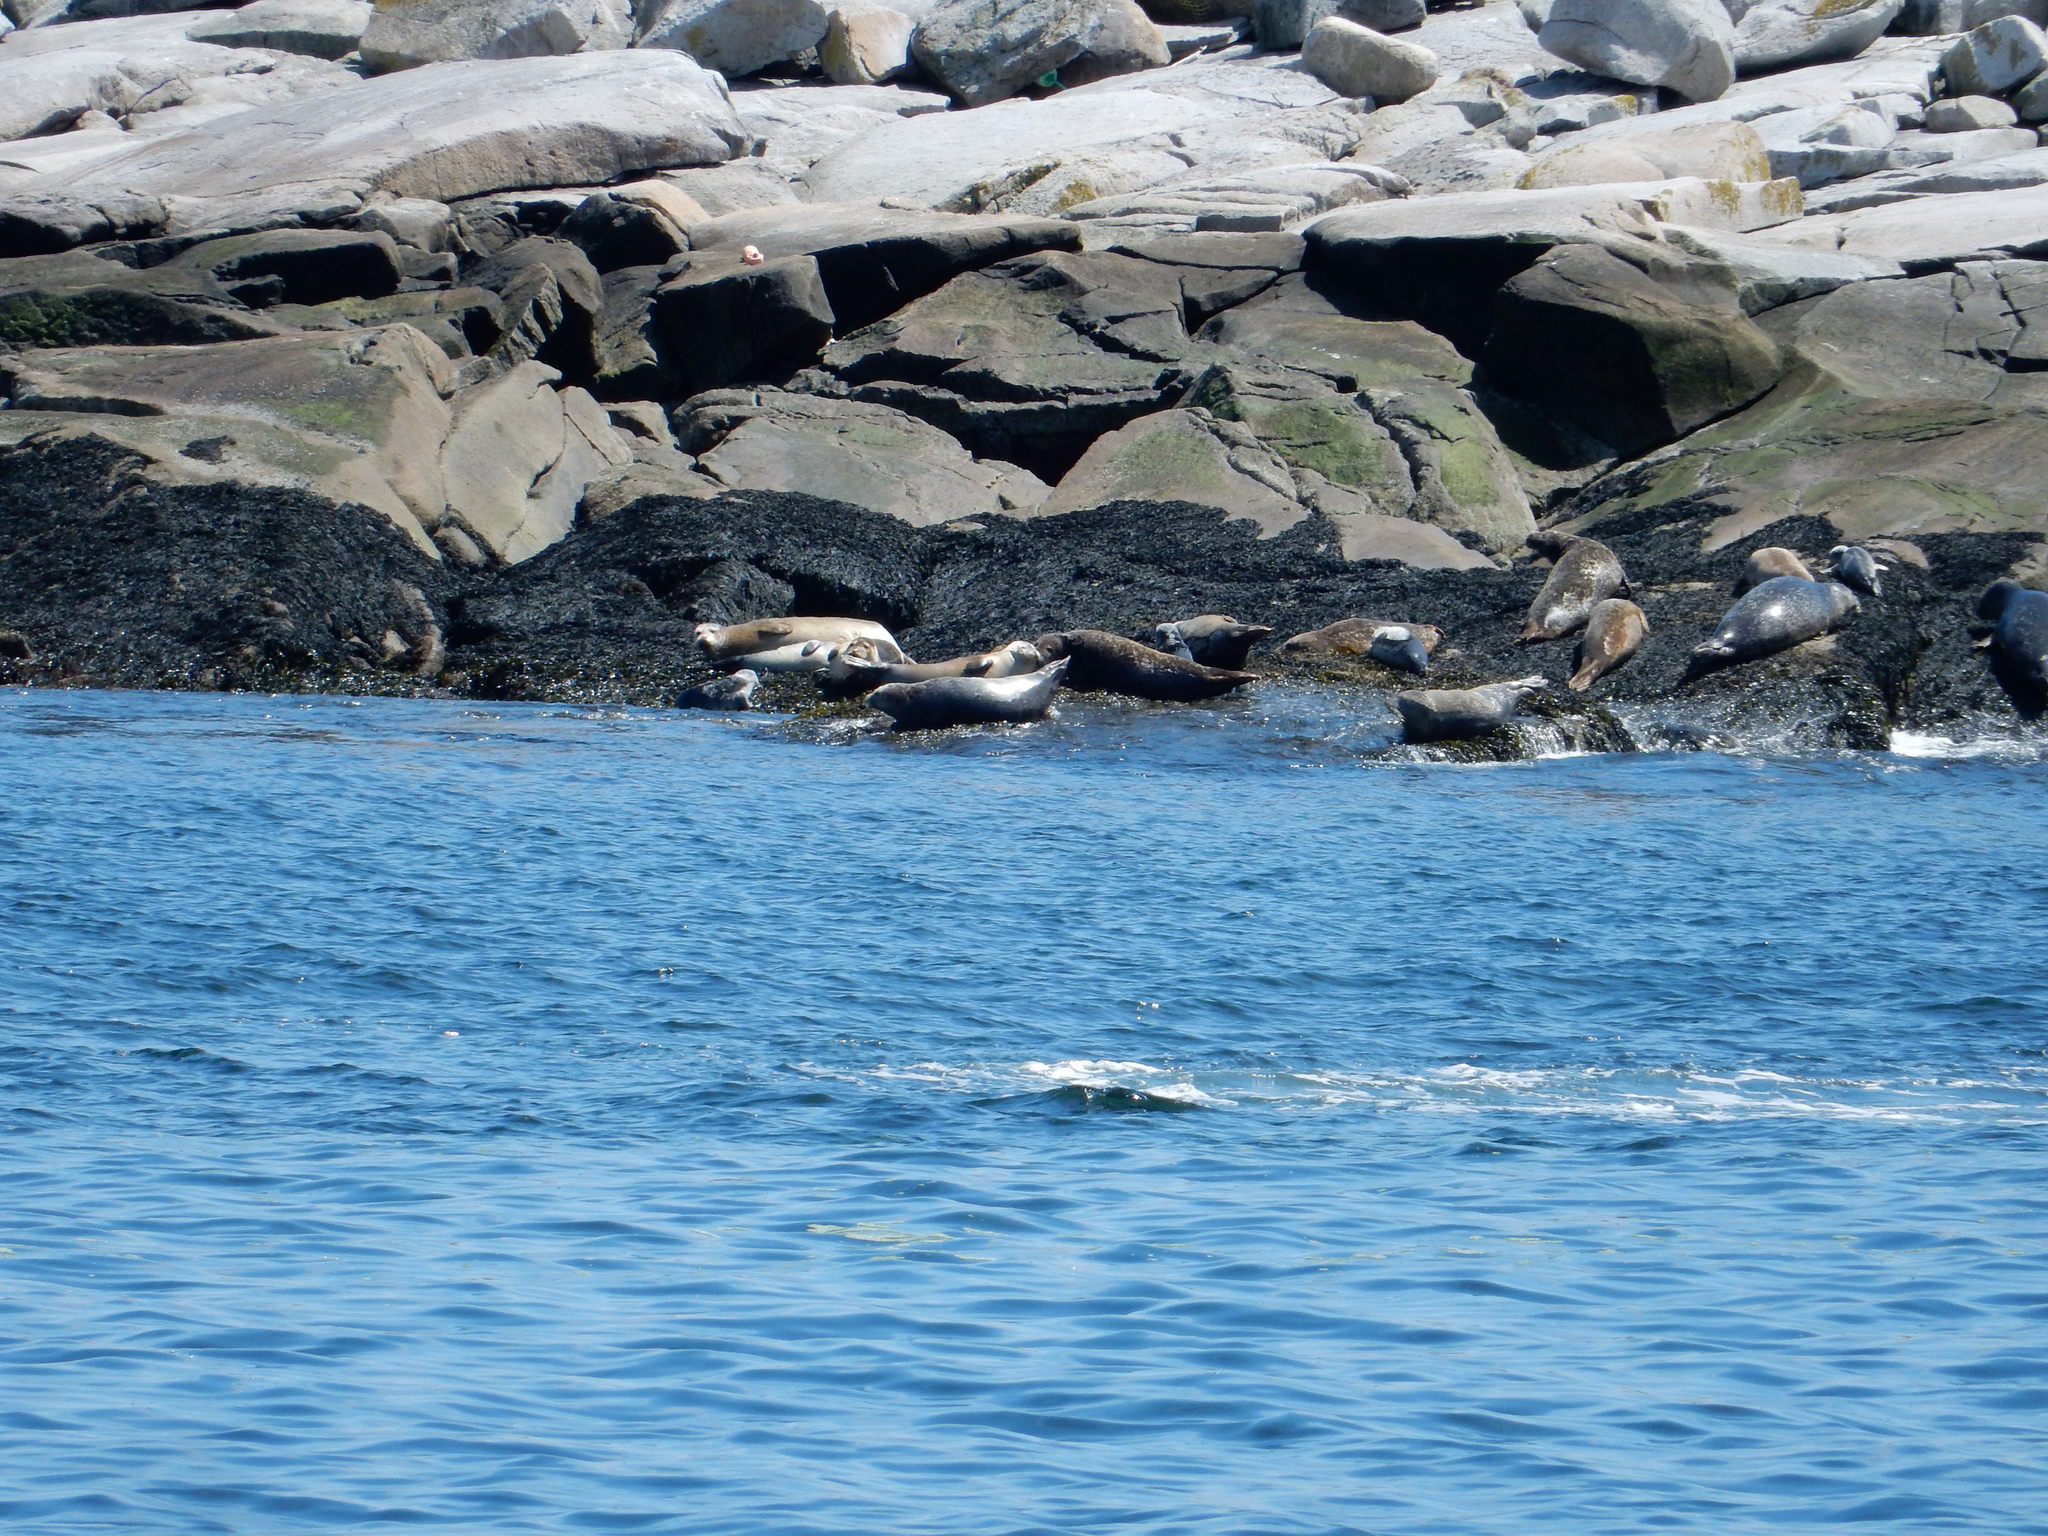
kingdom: Animalia
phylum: Chordata
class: Mammalia
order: Carnivora
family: Phocidae
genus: Phoca
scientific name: Phoca vitulina
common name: Harbor seal
